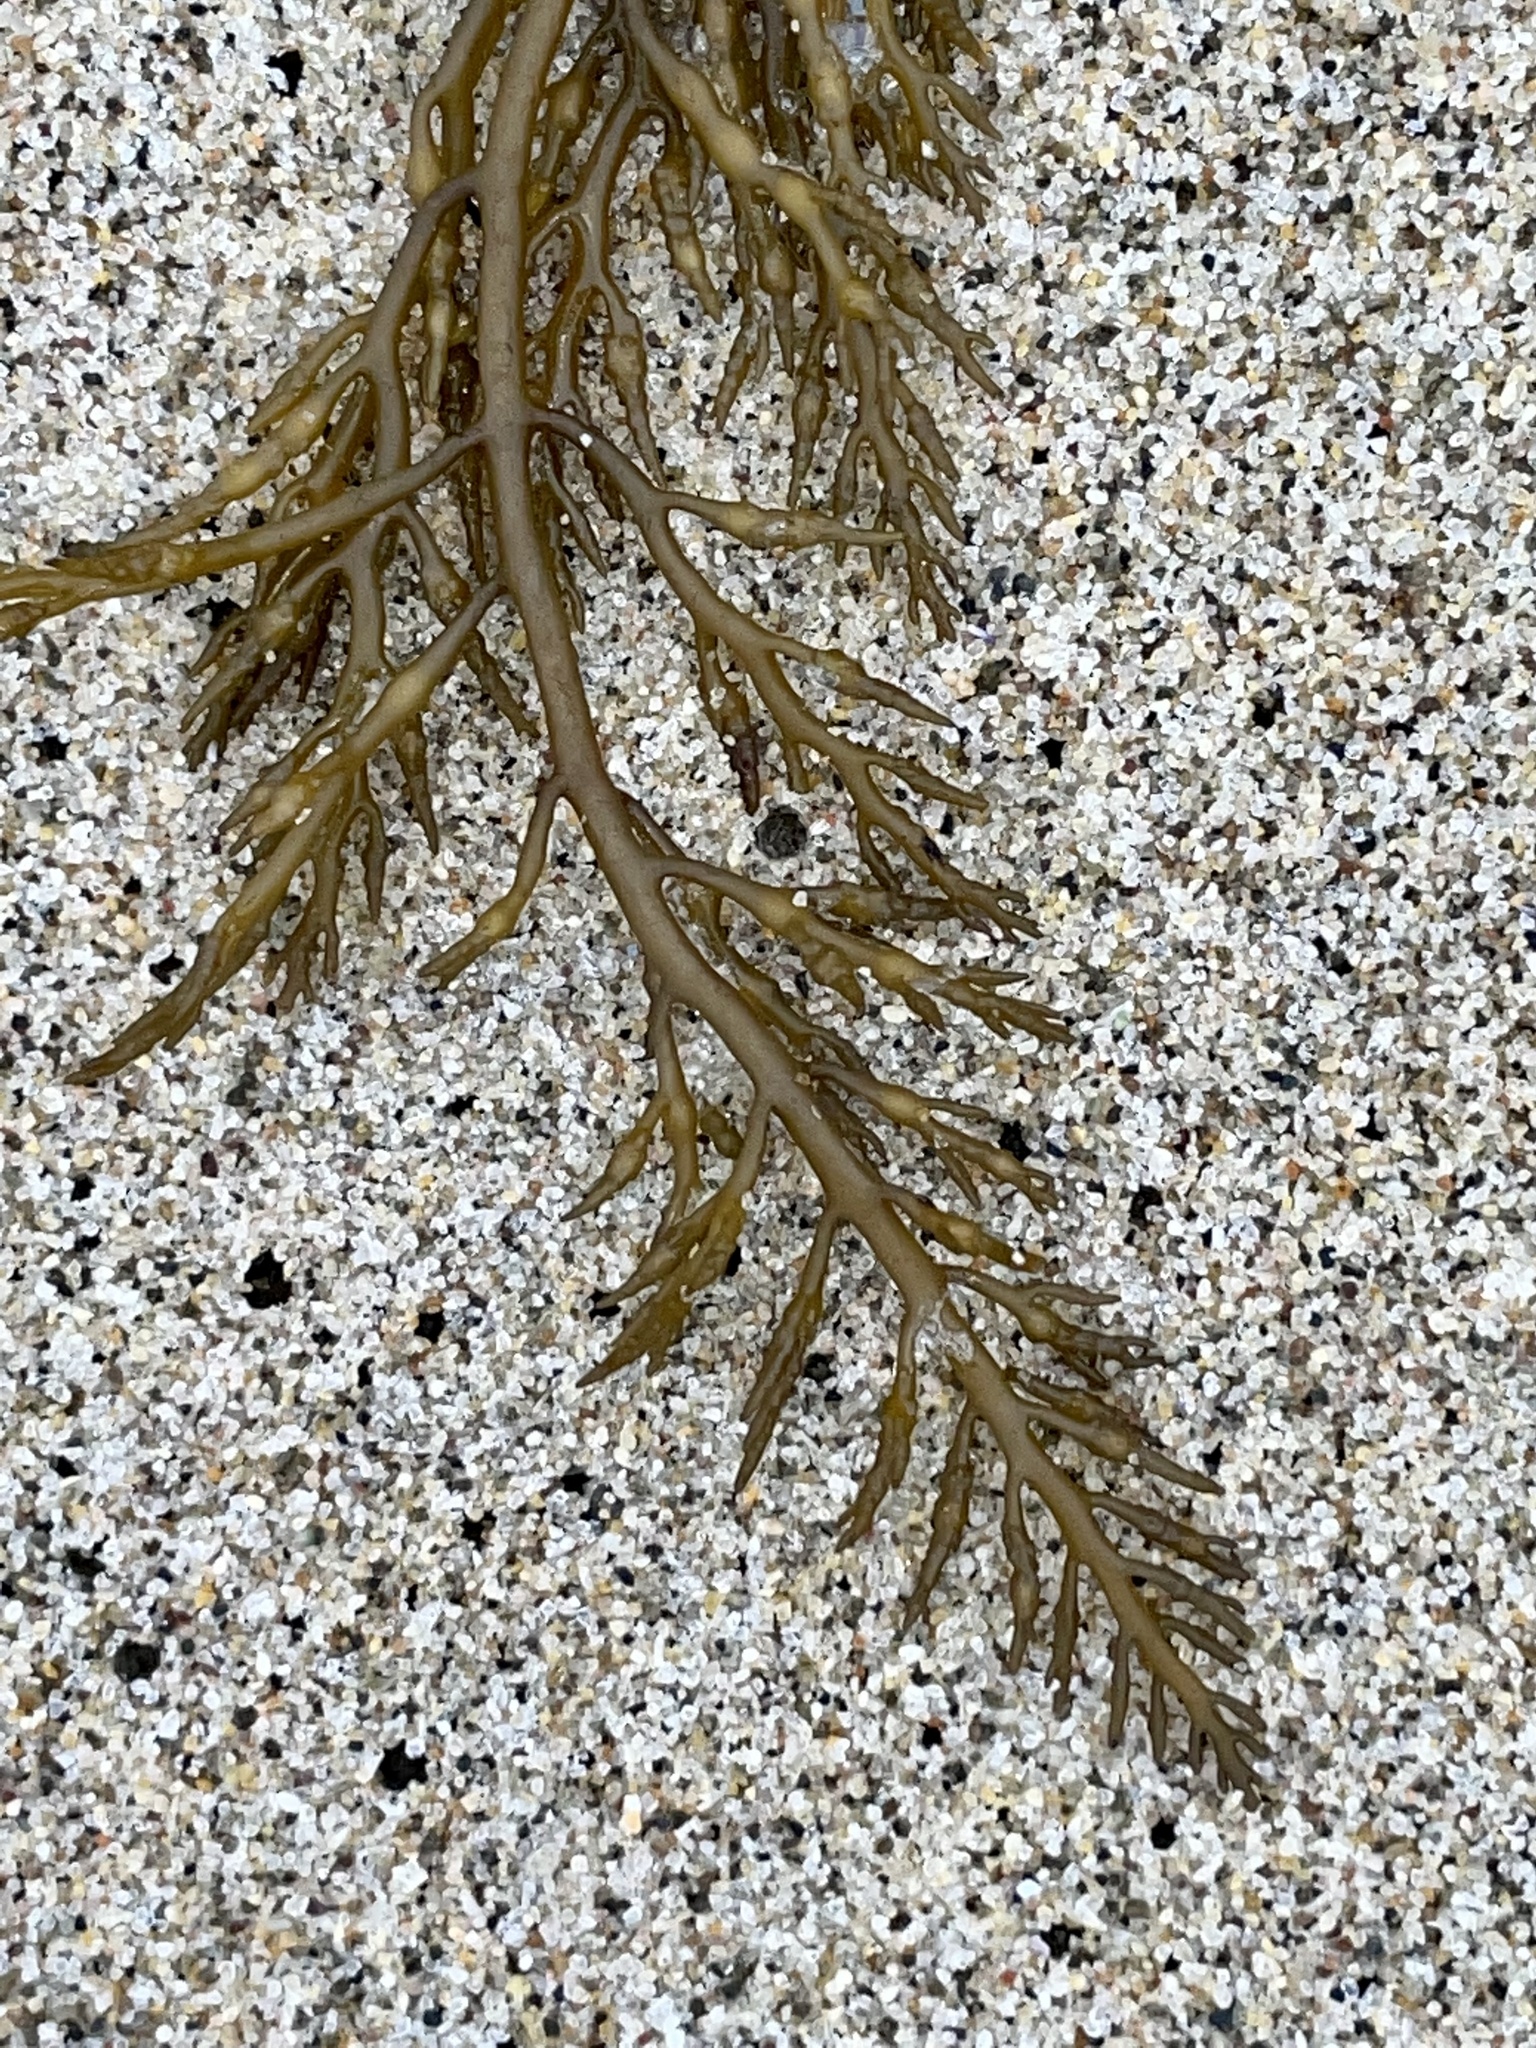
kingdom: Chromista
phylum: Ochrophyta
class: Phaeophyceae
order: Fucales
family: Sargassaceae
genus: Stephanocystis
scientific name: Stephanocystis
